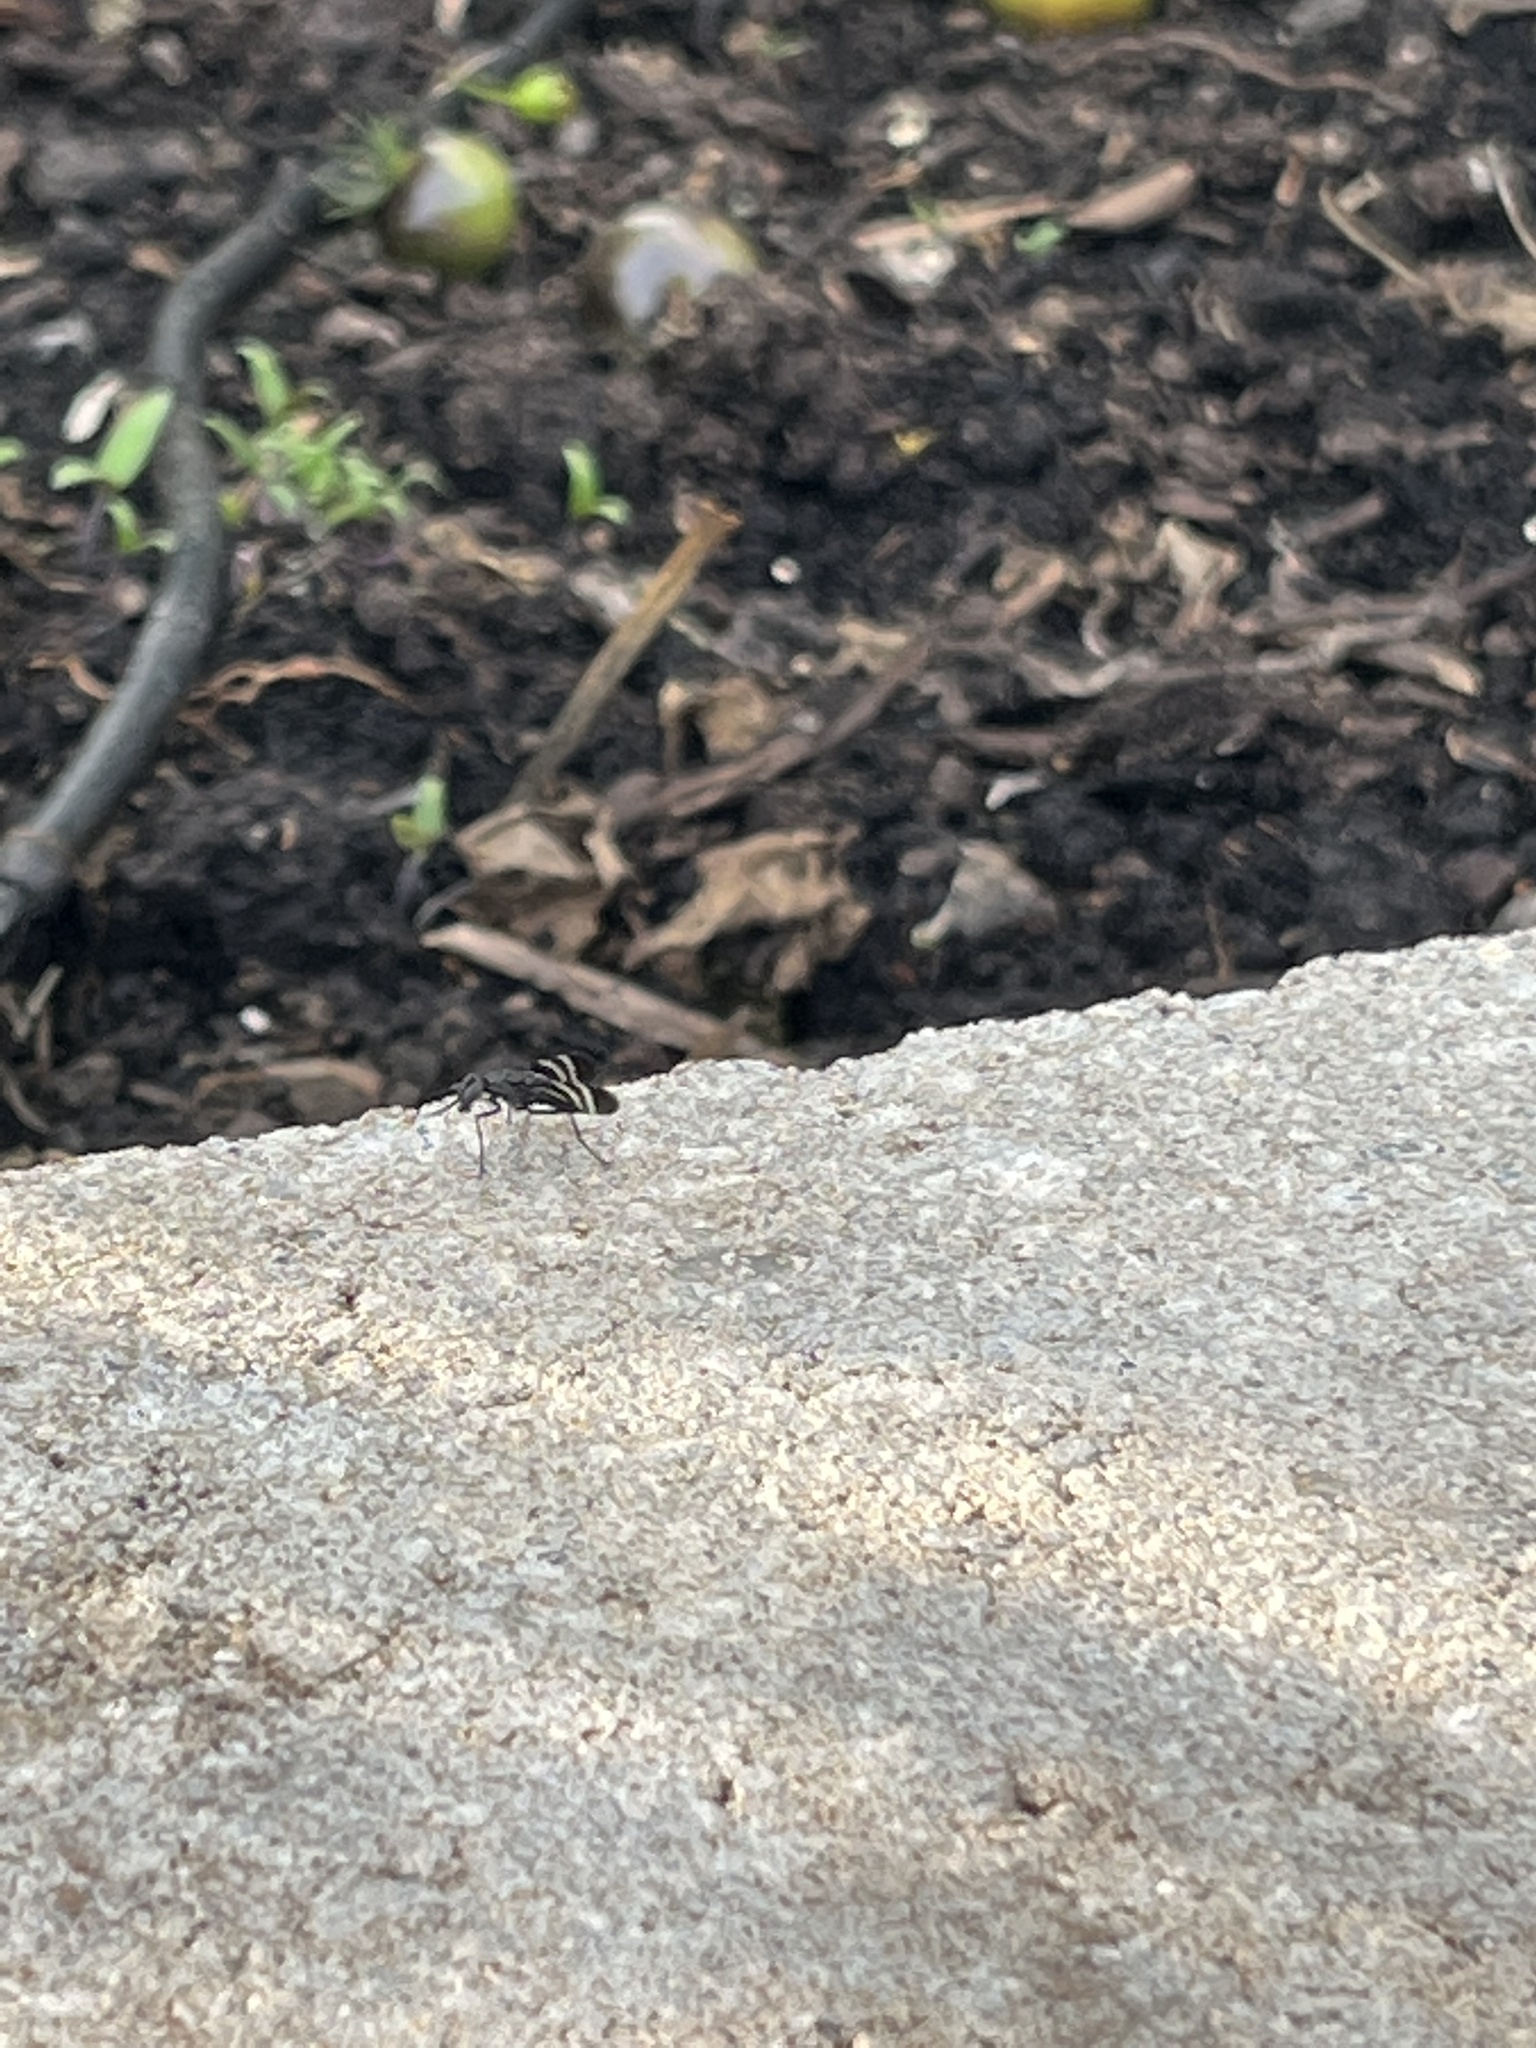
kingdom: Animalia
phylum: Arthropoda
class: Insecta
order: Diptera
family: Ulidiidae
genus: Tritoxa
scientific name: Tritoxa flexa
